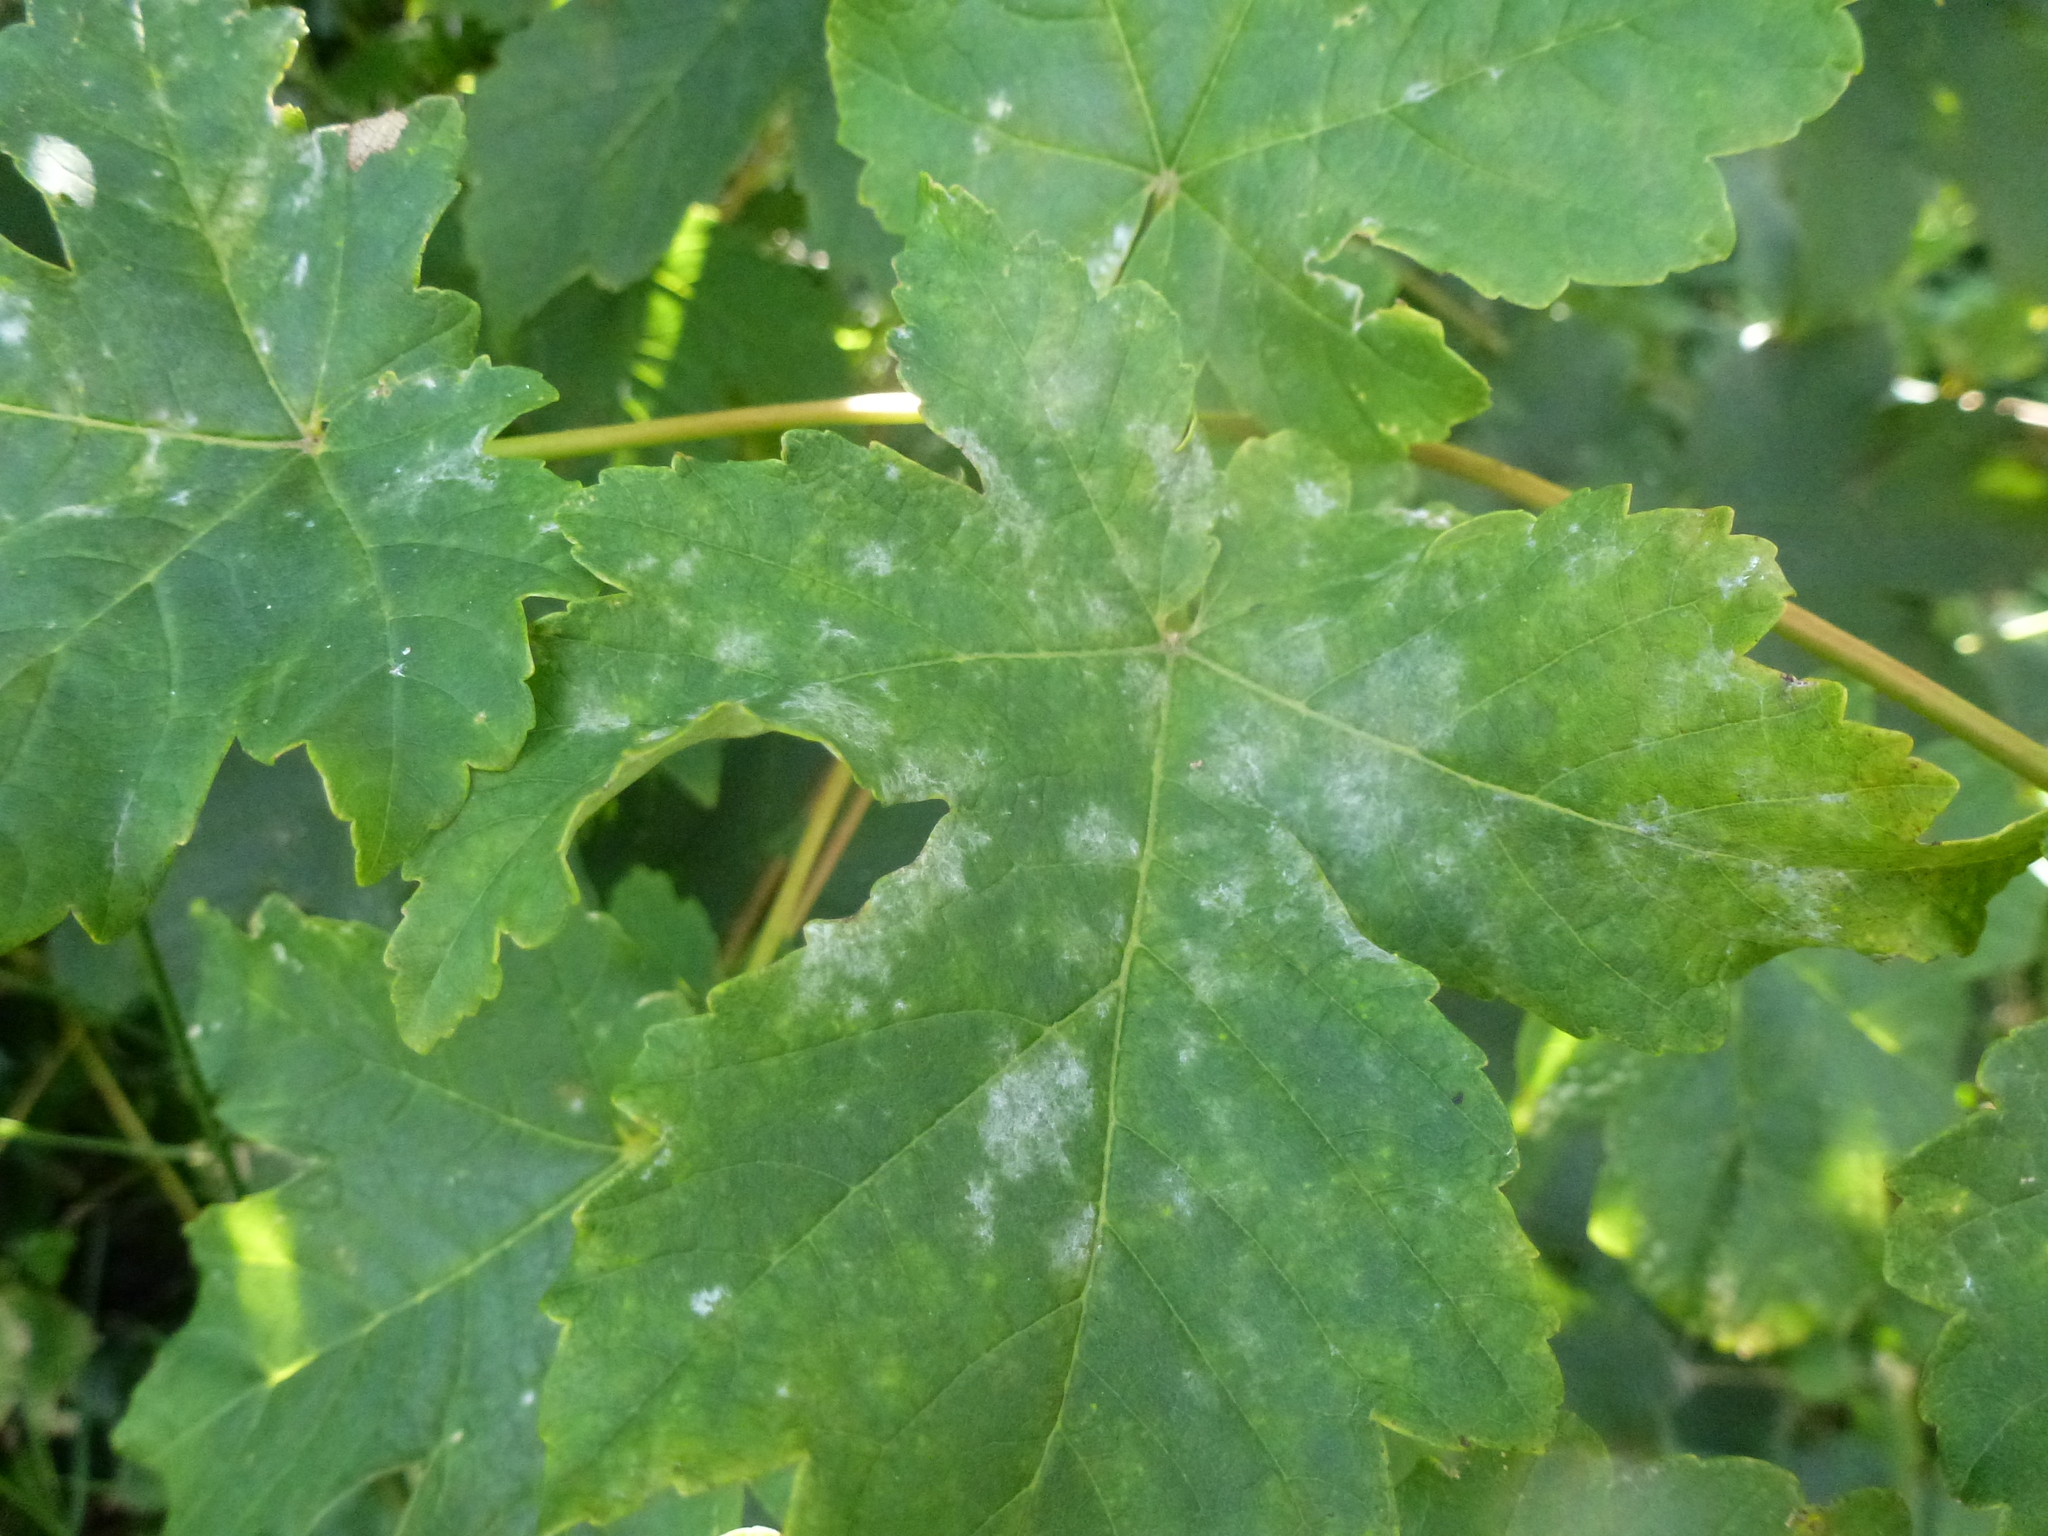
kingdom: Fungi
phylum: Ascomycota
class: Leotiomycetes
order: Helotiales
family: Erysiphaceae
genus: Sawadaea
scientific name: Sawadaea bicornis
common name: Maple mildew
